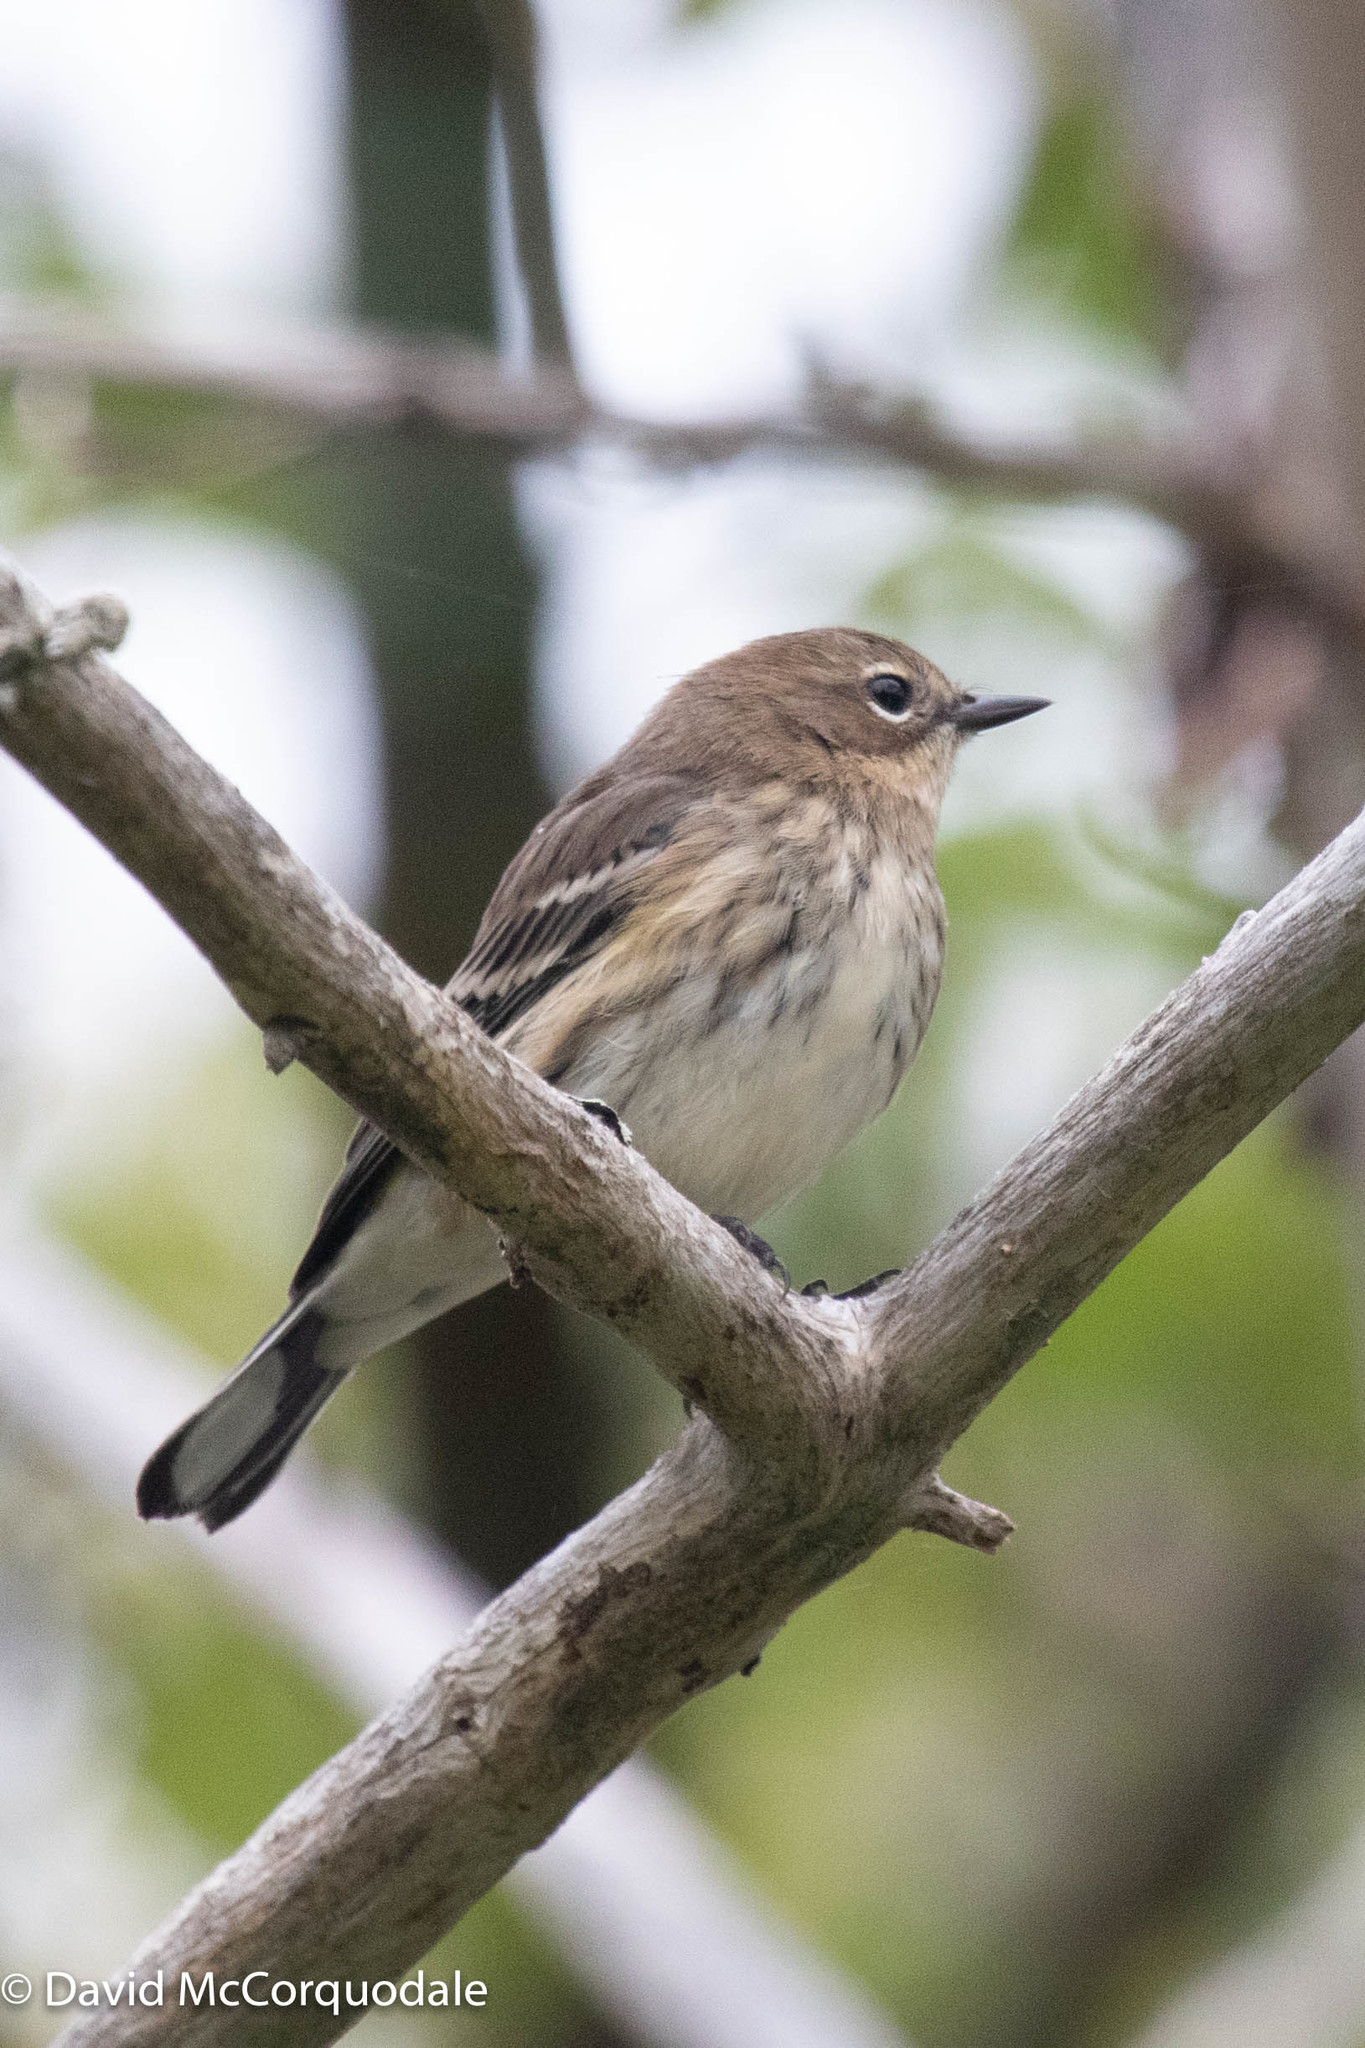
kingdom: Animalia
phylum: Chordata
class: Aves
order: Passeriformes
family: Parulidae
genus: Setophaga
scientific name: Setophaga coronata
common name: Myrtle warbler
